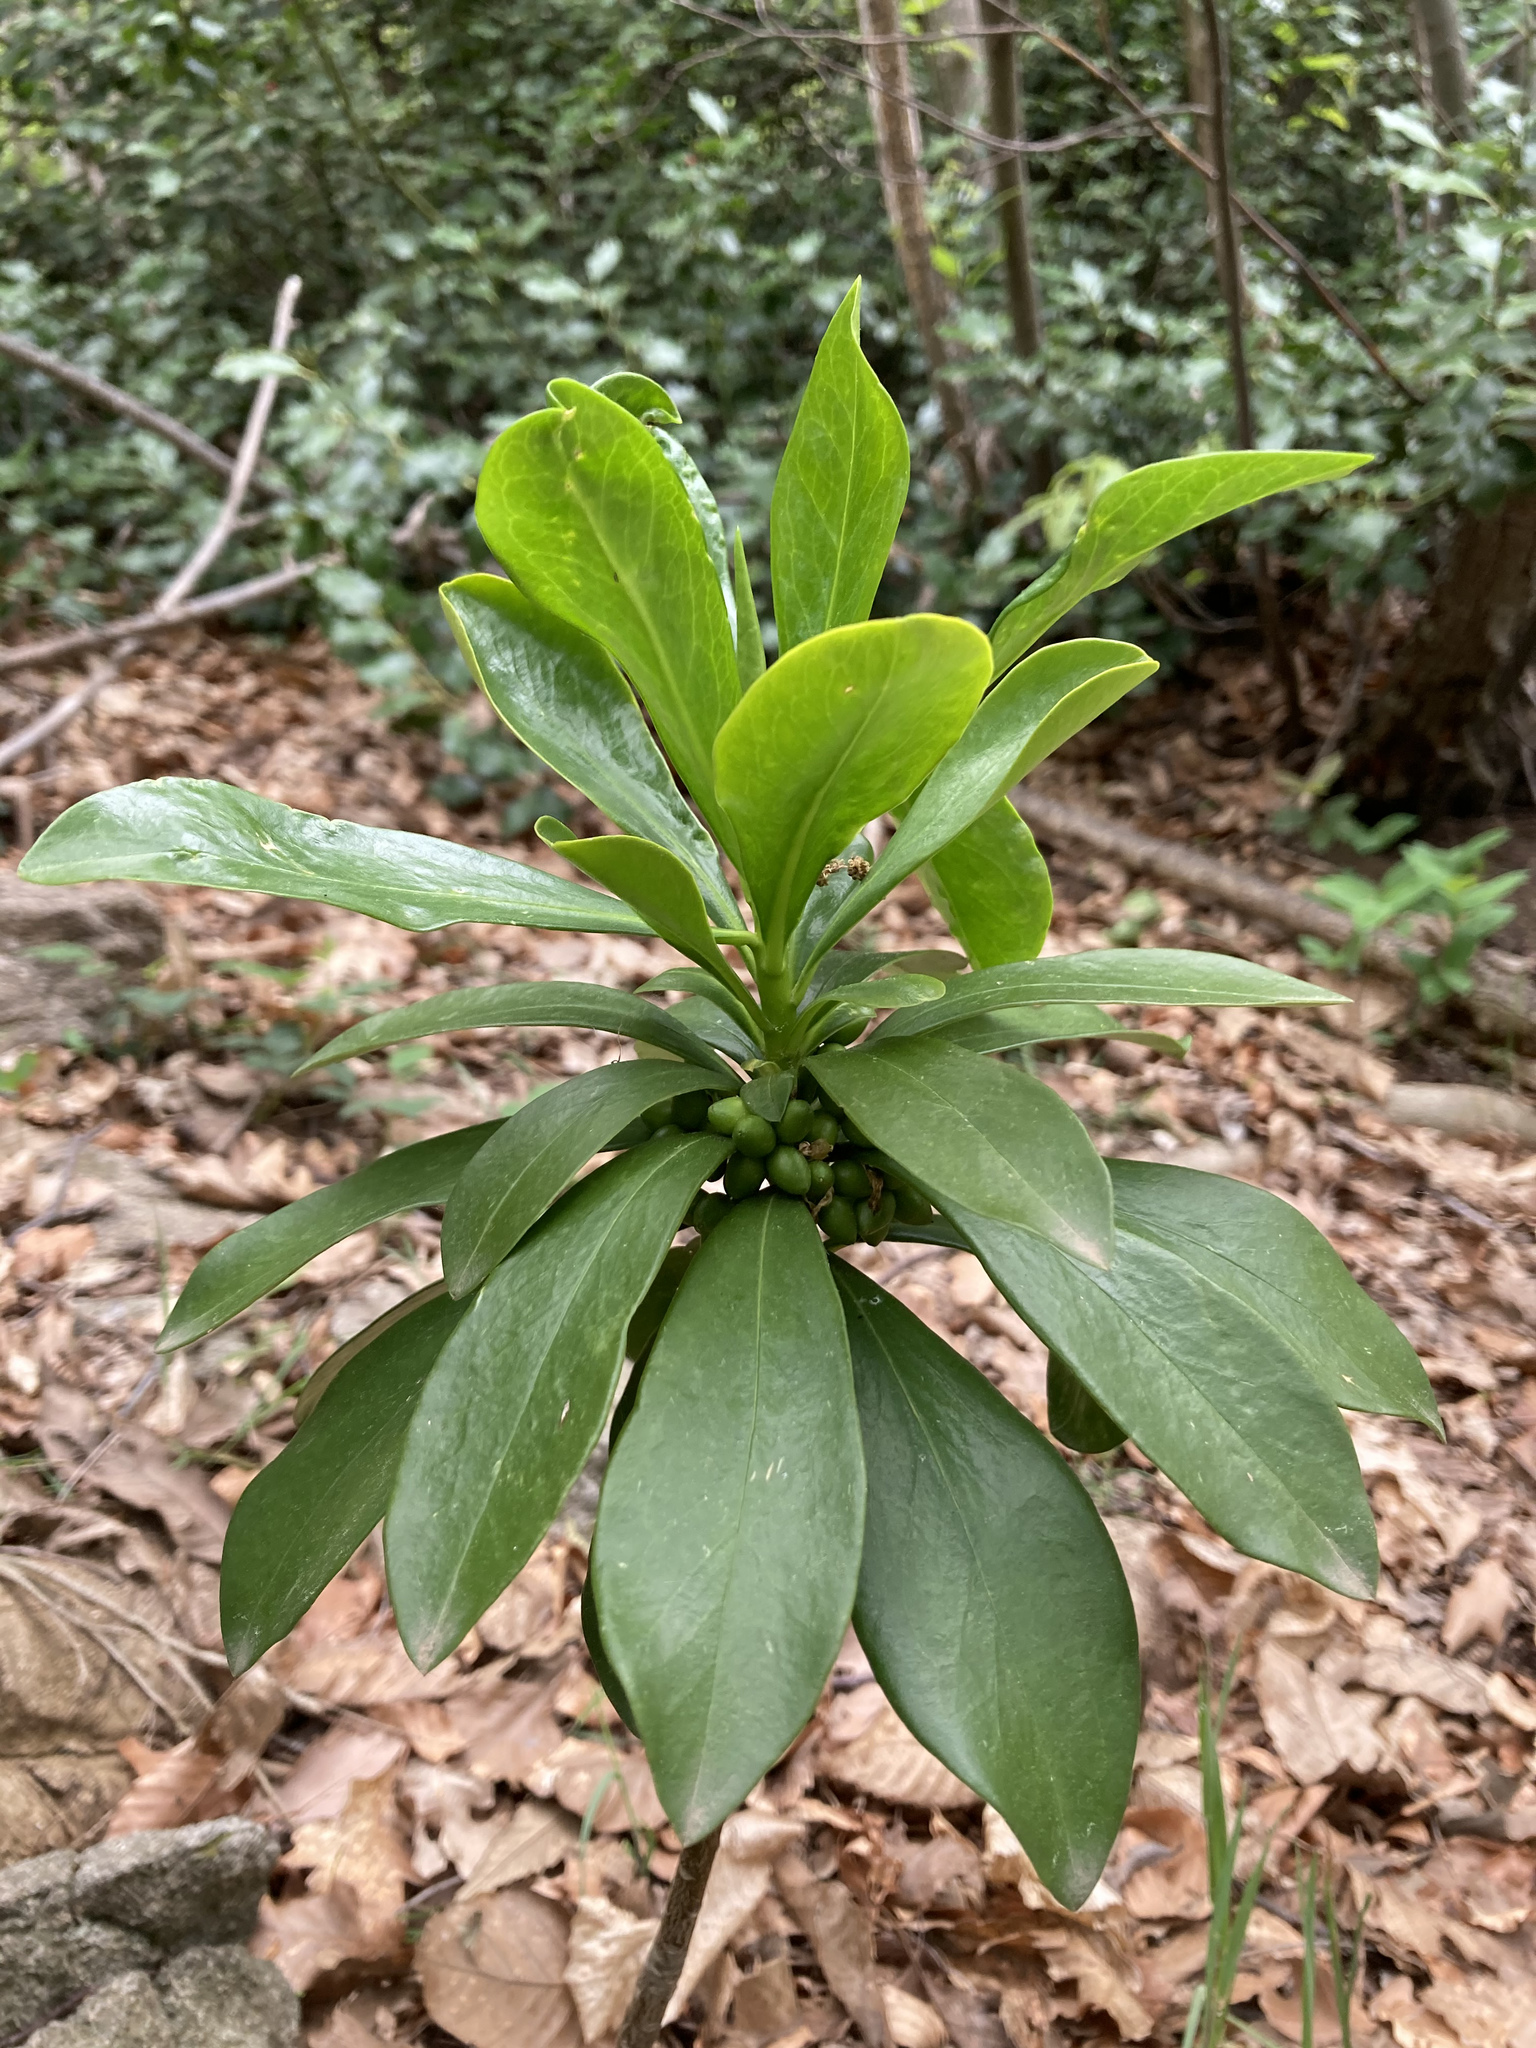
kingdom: Plantae
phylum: Tracheophyta
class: Magnoliopsida
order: Malvales
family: Thymelaeaceae
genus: Daphne
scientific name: Daphne laureola
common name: Spurge-laurel
